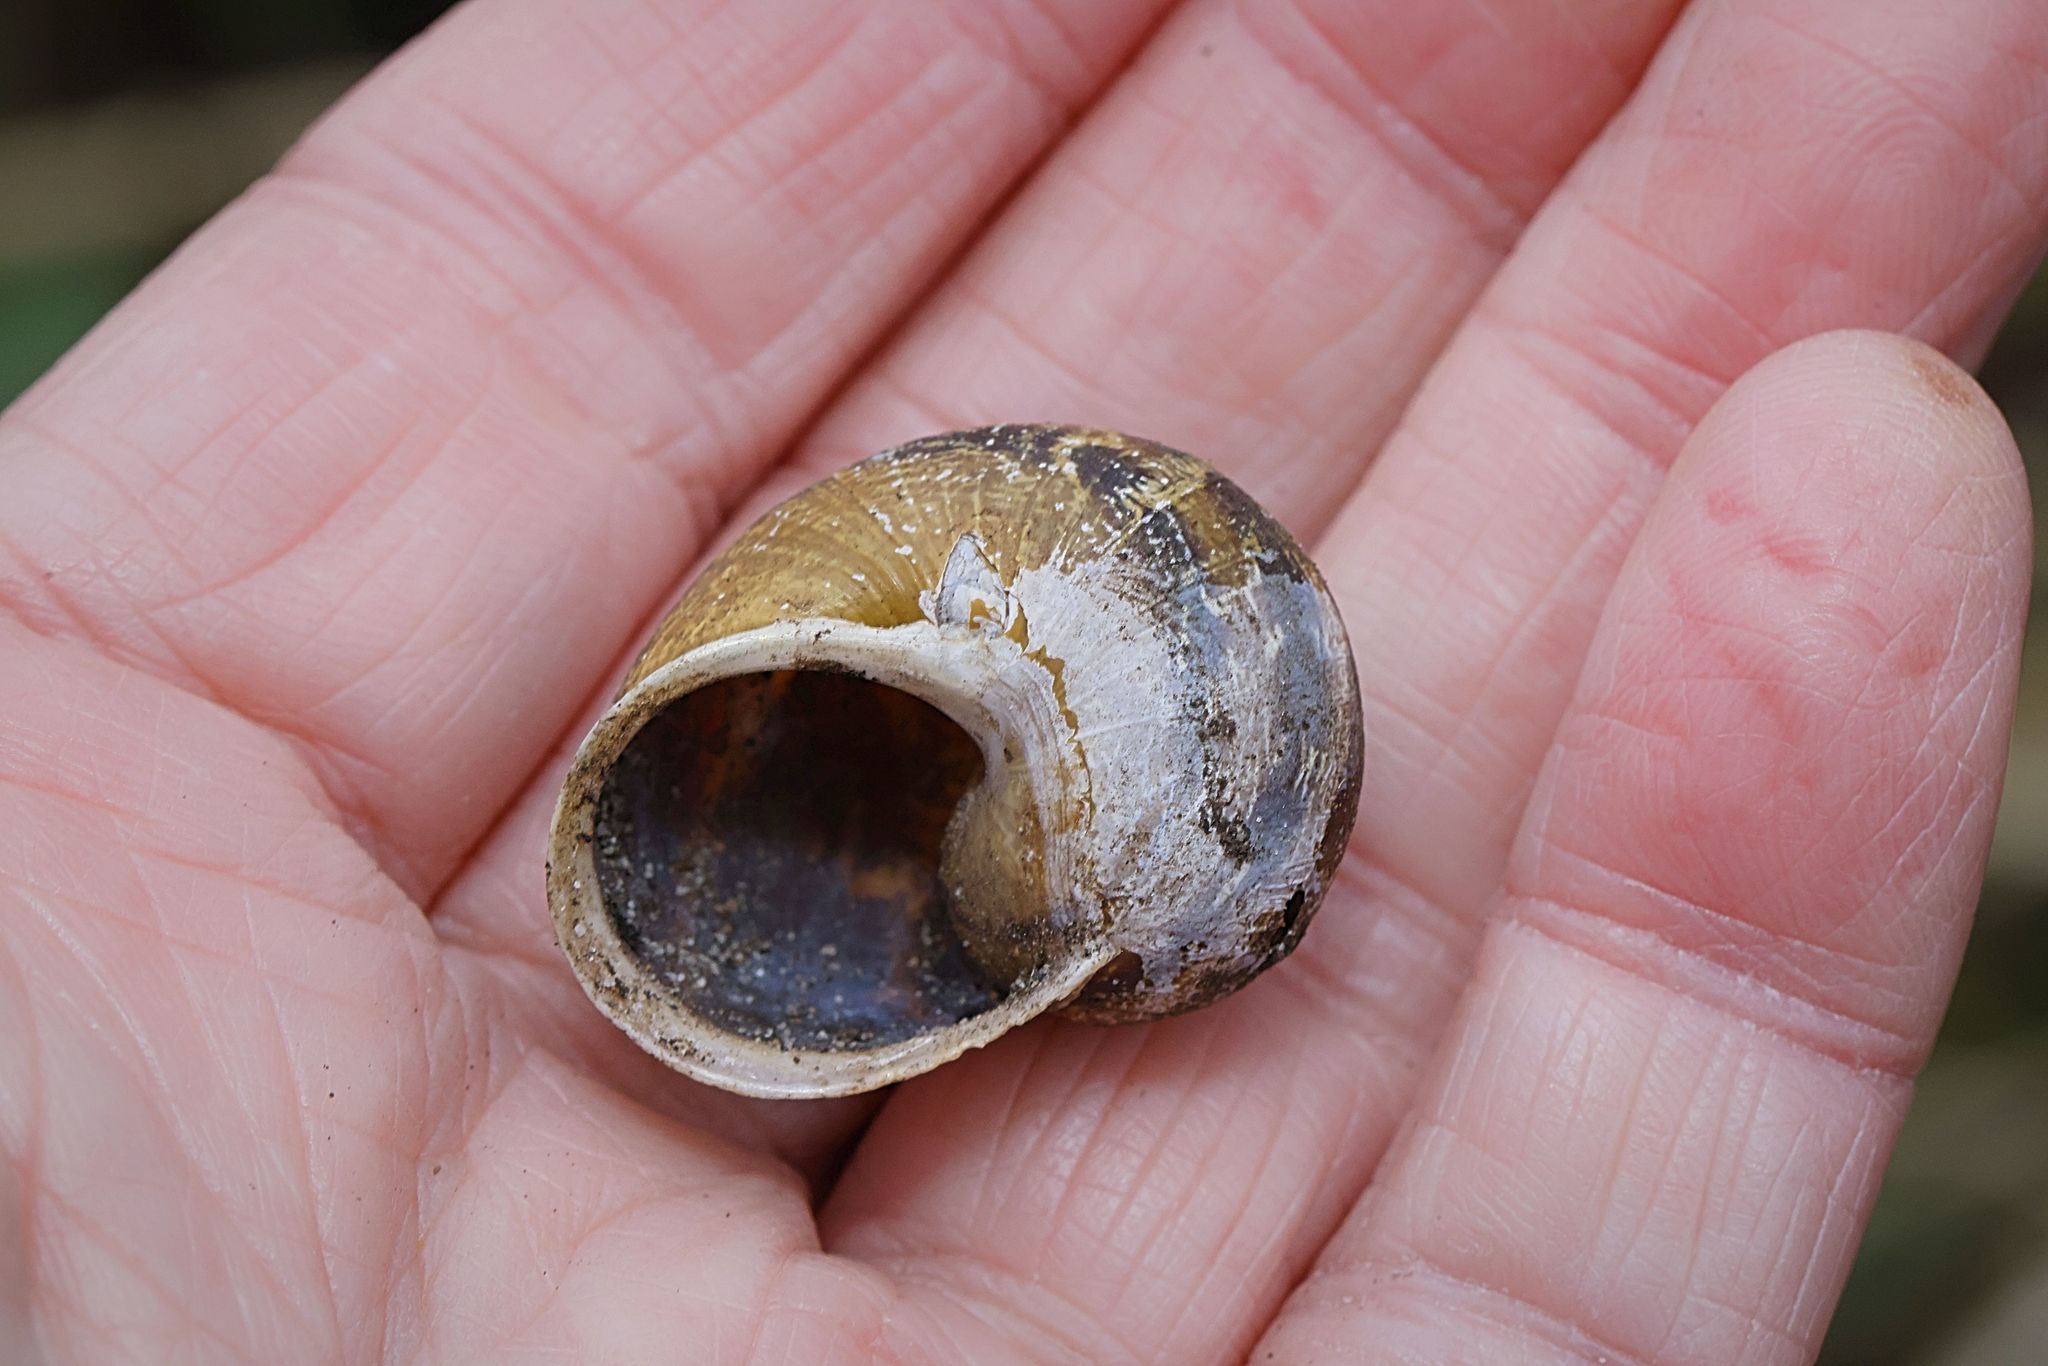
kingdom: Animalia
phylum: Mollusca
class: Gastropoda
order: Stylommatophora
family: Helicidae
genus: Cornu
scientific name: Cornu aspersum
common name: Brown garden snail
